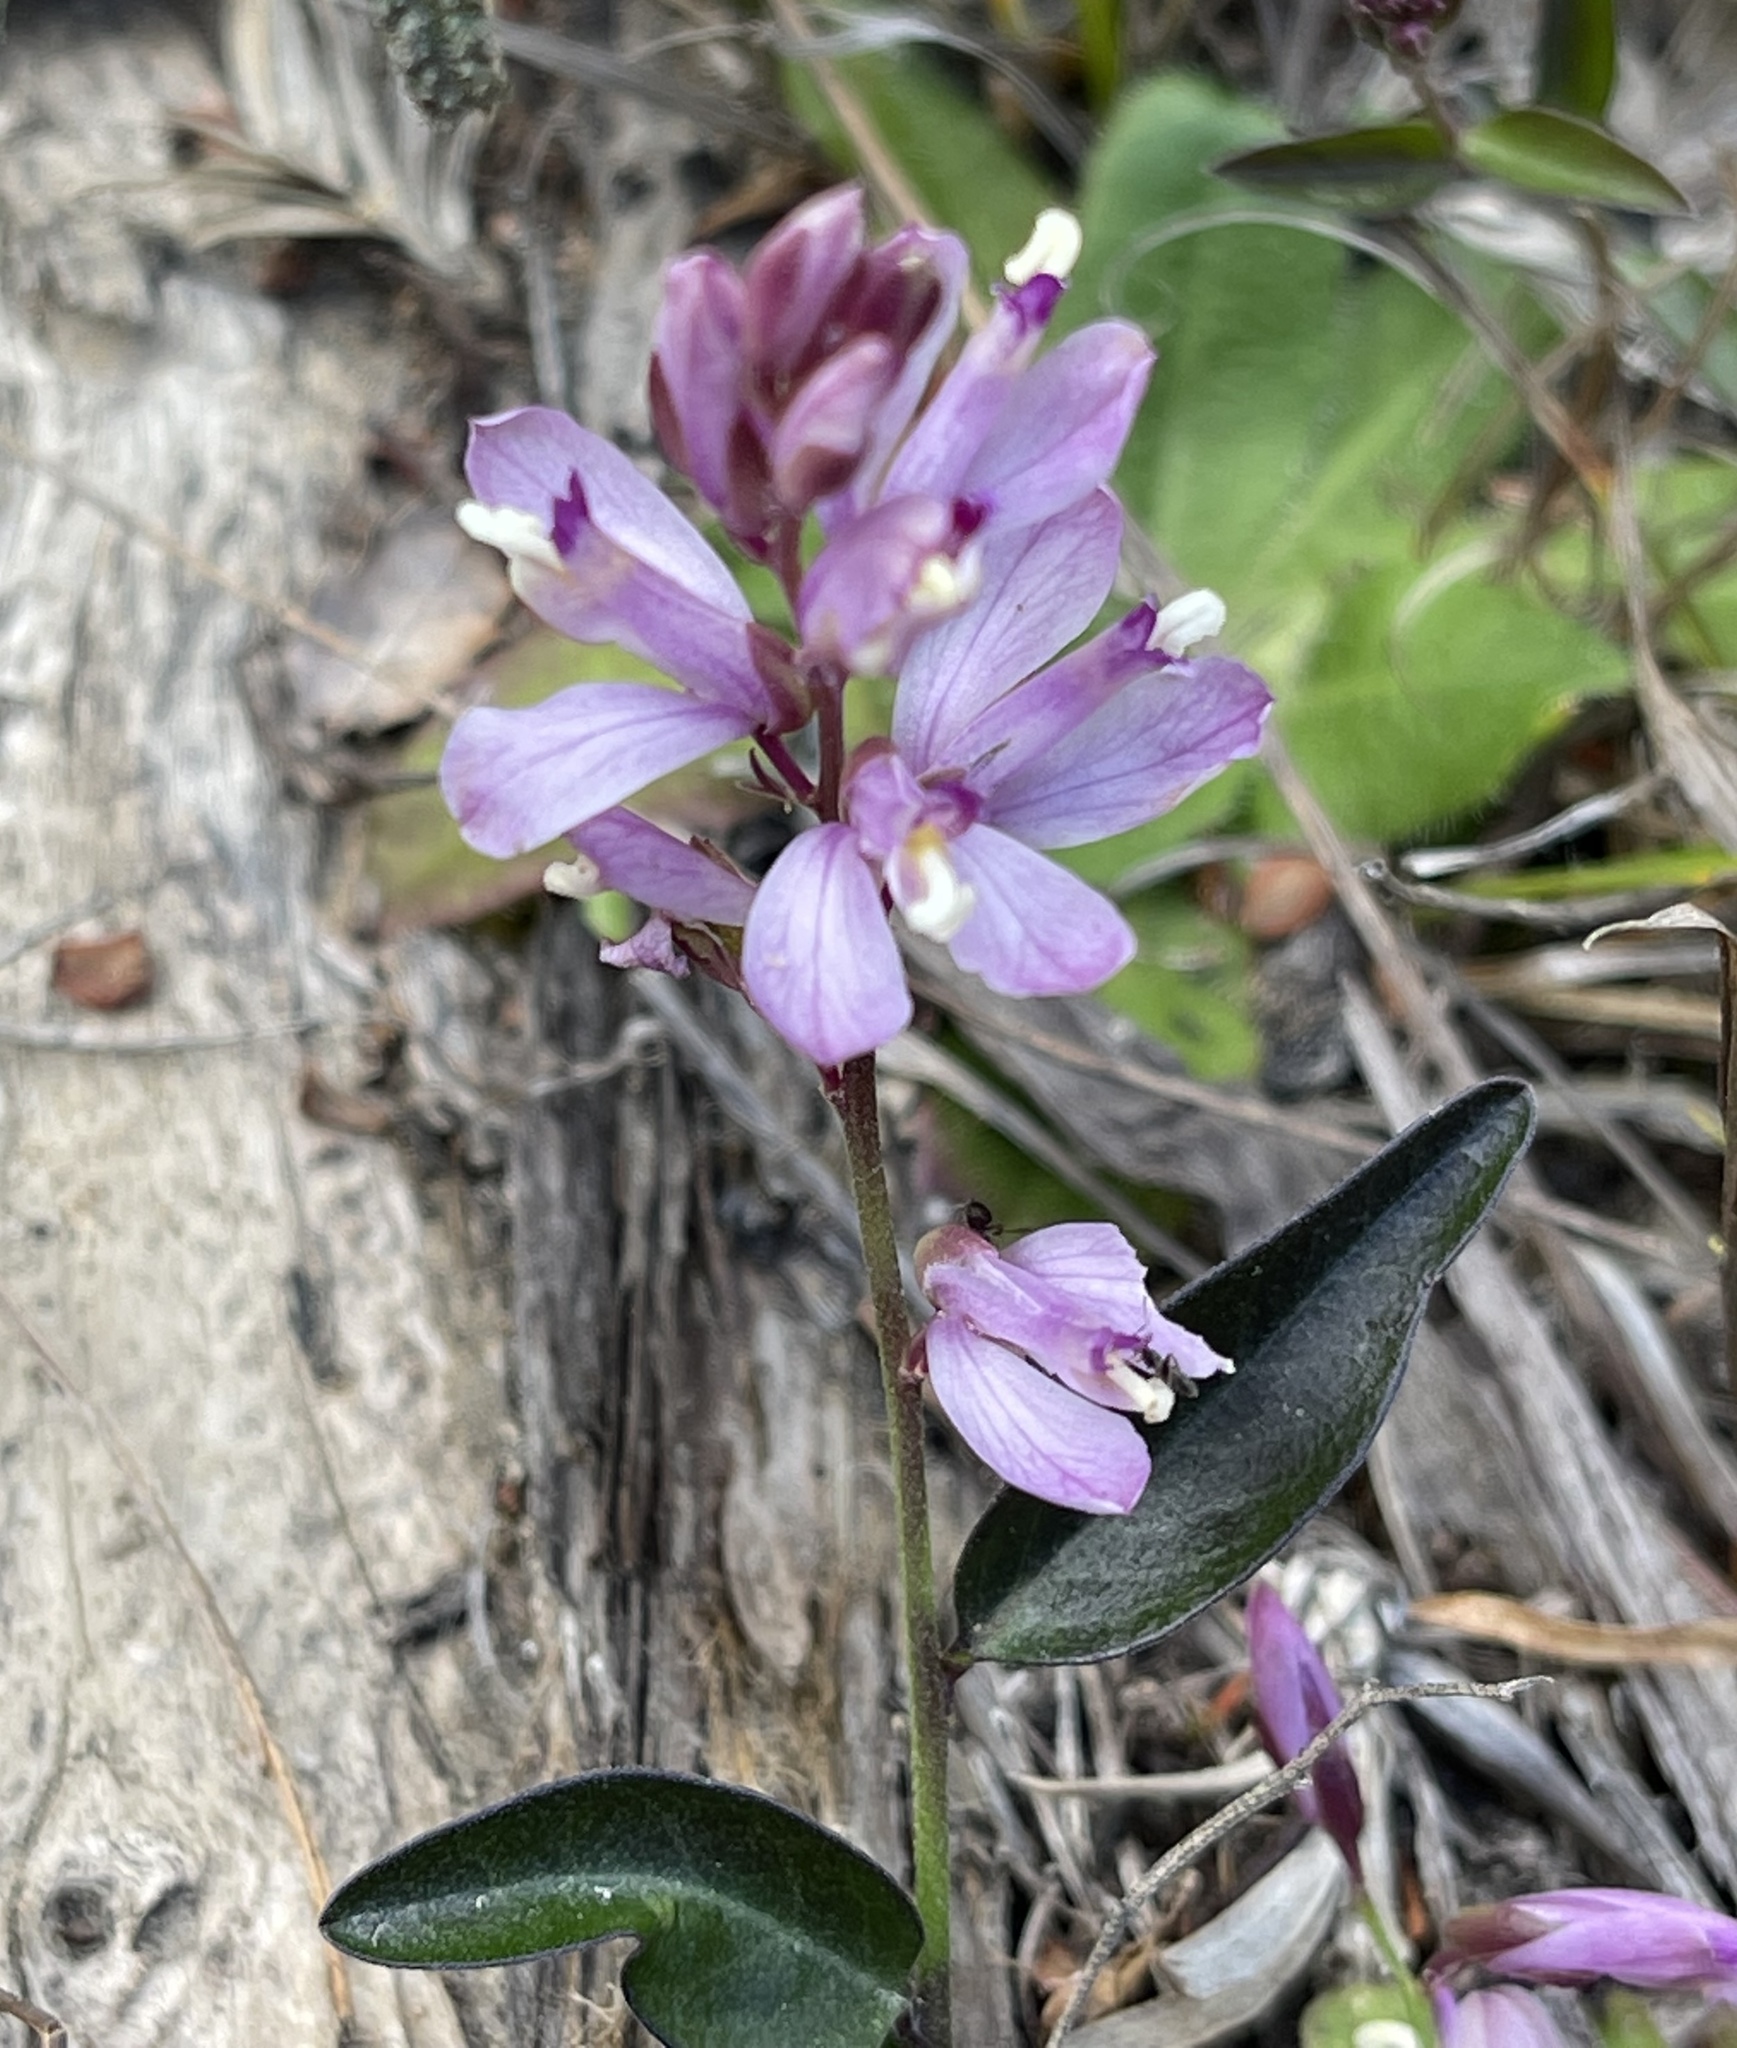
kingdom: Plantae
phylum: Tracheophyta
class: Magnoliopsida
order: Fabales
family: Polygalaceae
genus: Rhinotropis
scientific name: Rhinotropis californica
